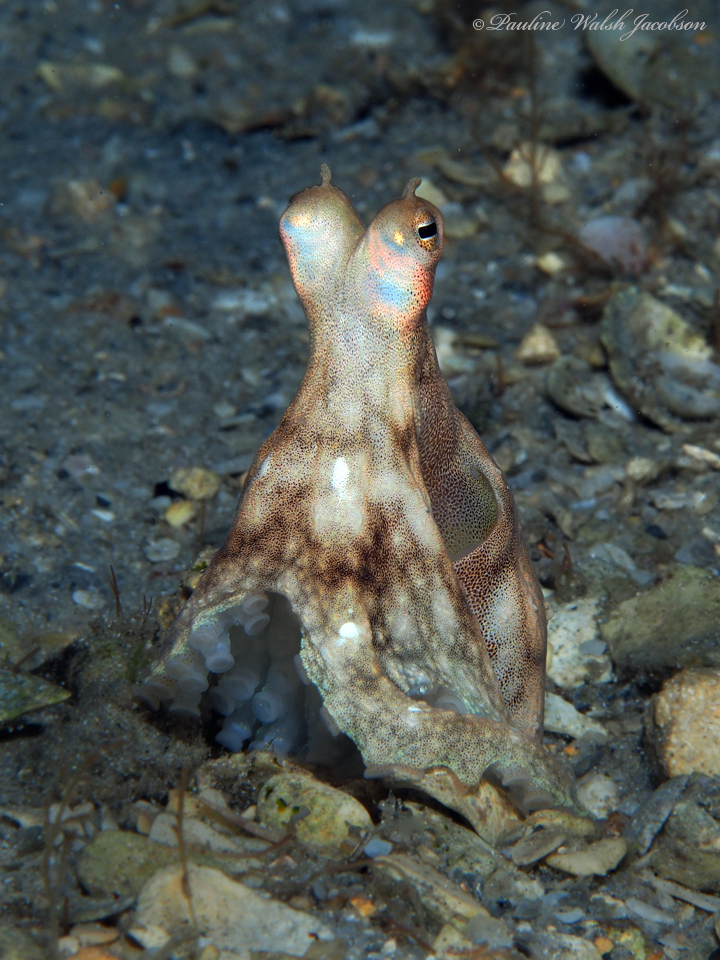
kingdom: Animalia
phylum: Mollusca
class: Cephalopoda
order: Octopoda
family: Octopodidae
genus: Macrotritopus
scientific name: Macrotritopus defilippi
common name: Lilliput longarm octopus
